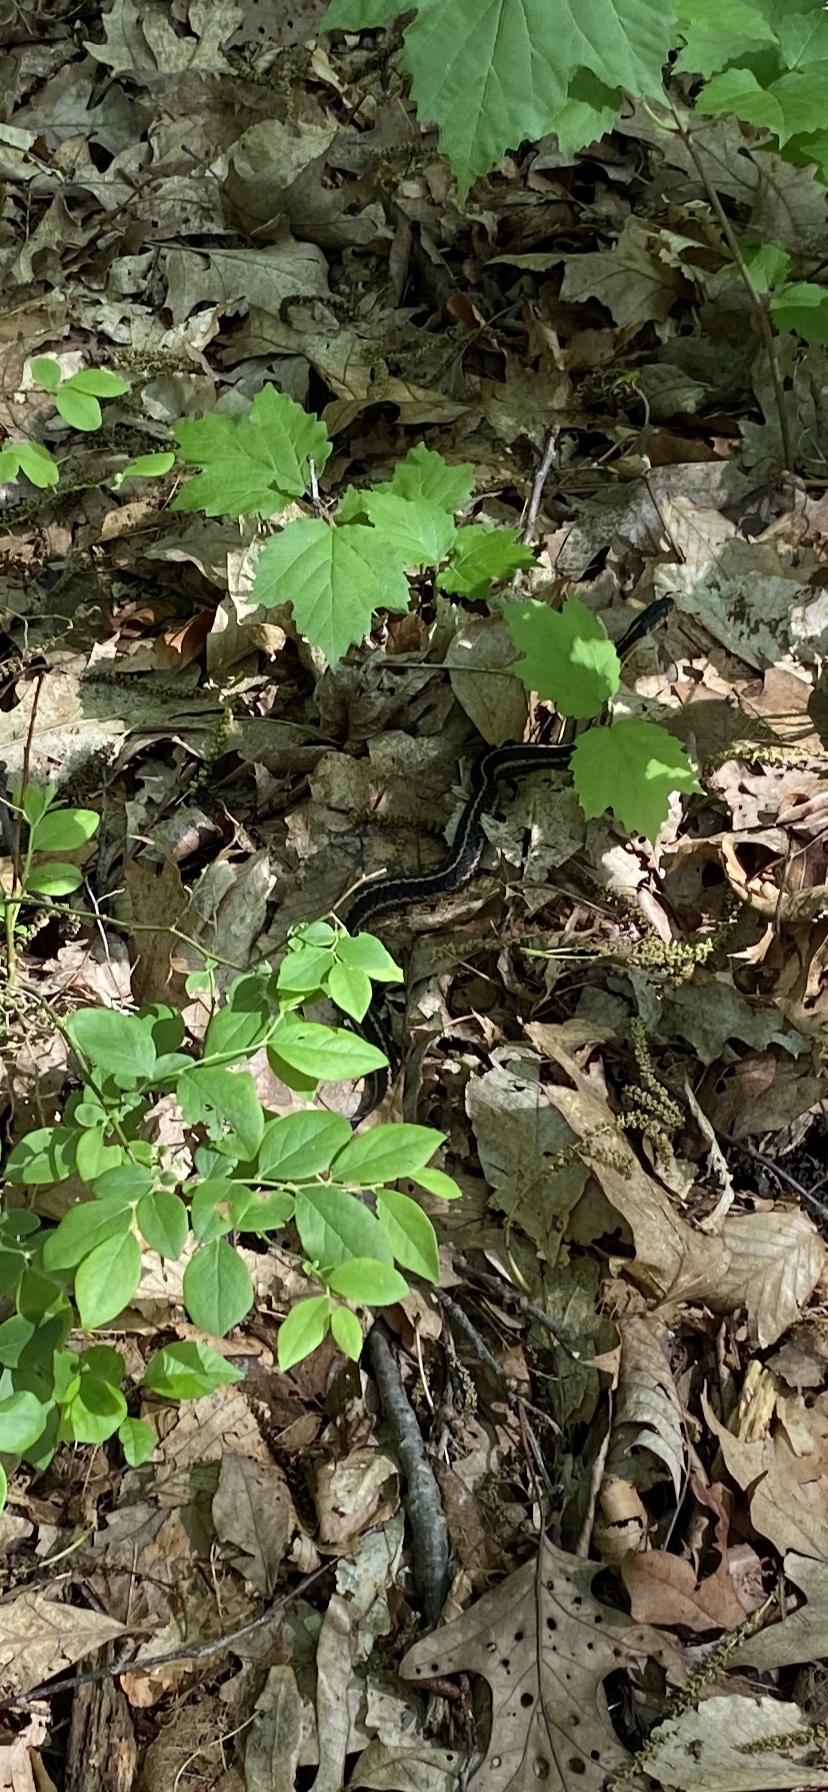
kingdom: Animalia
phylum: Chordata
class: Squamata
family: Colubridae
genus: Thamnophis
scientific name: Thamnophis sirtalis
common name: Common garter snake
